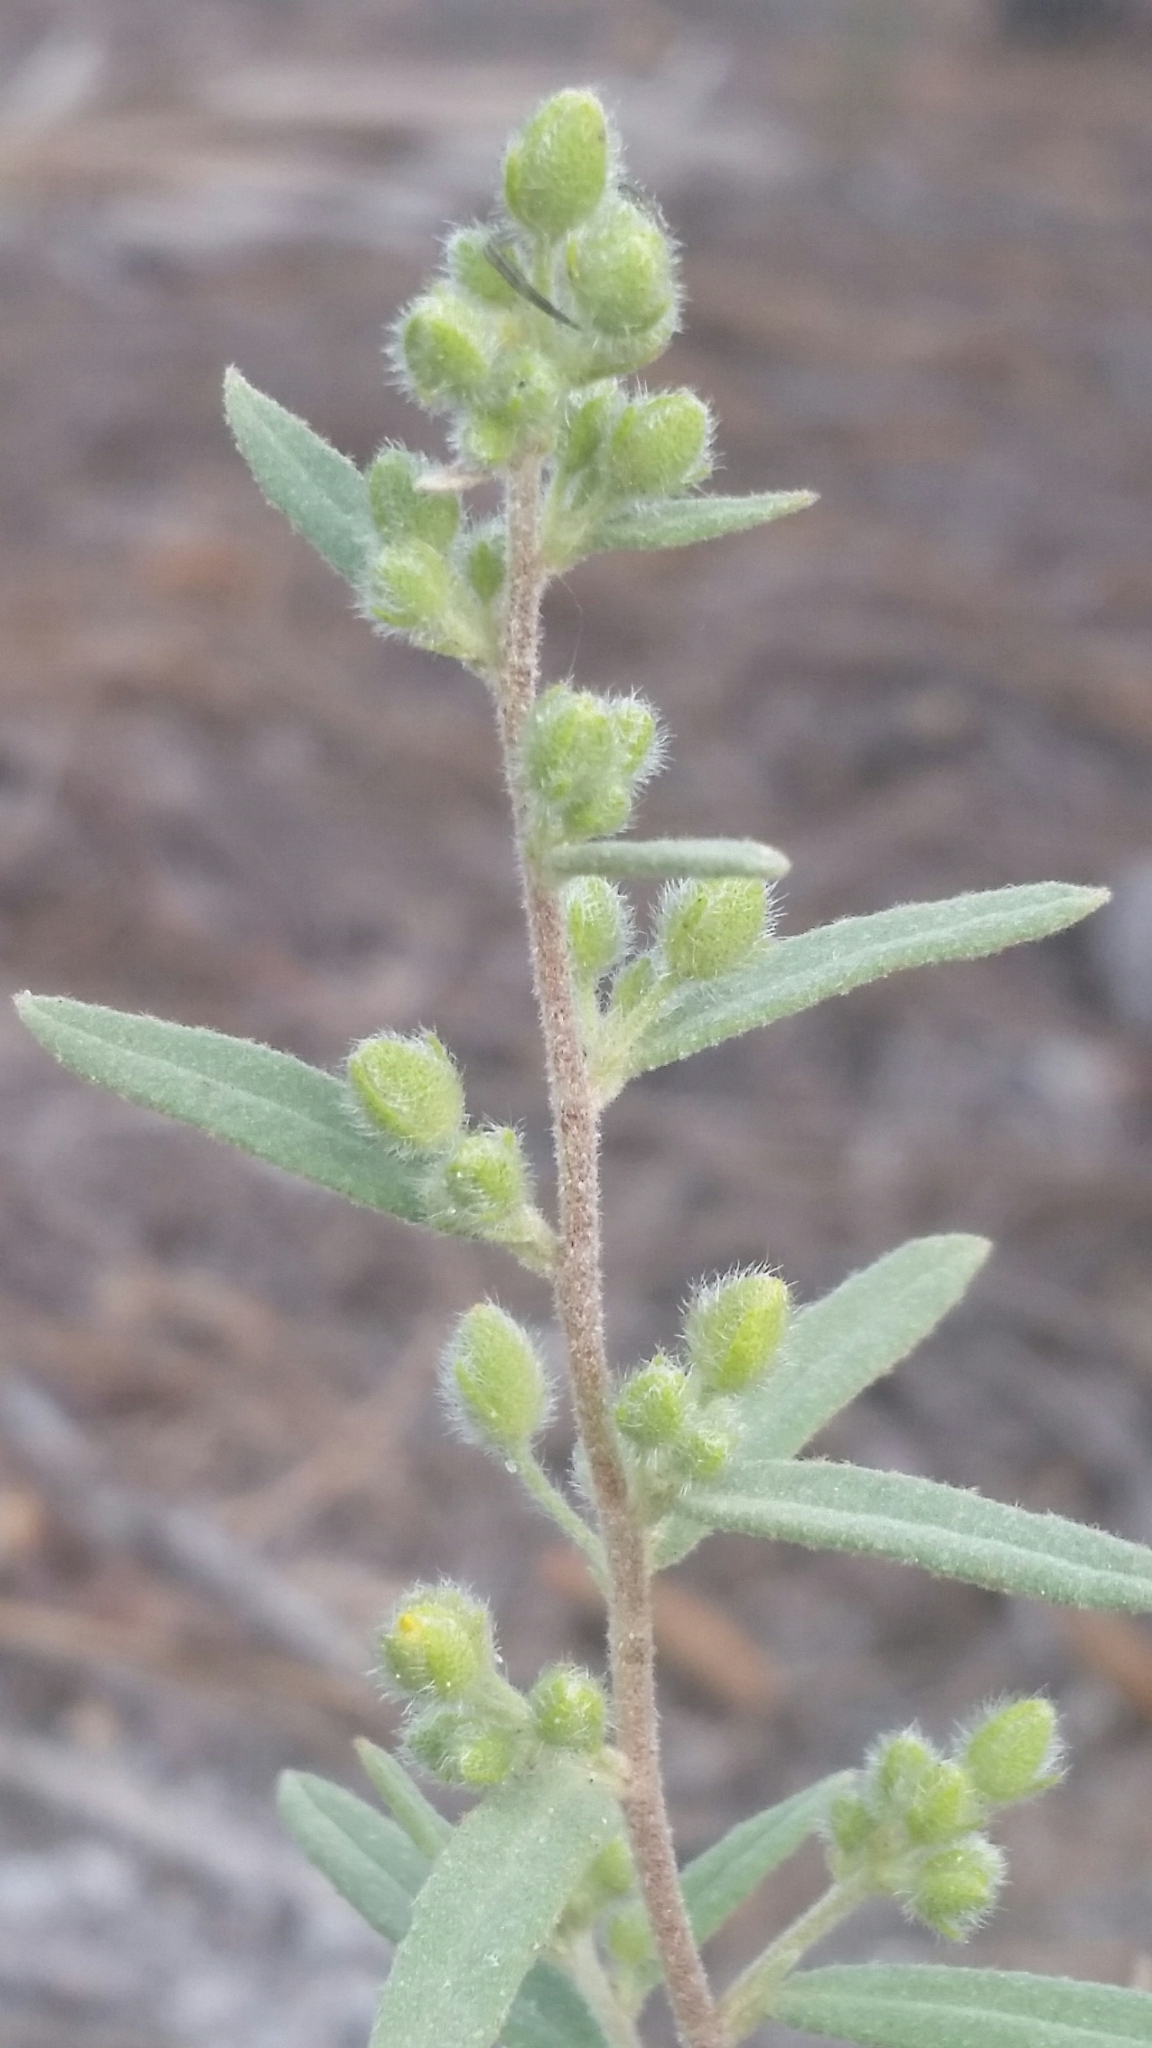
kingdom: Plantae
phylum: Tracheophyta
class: Magnoliopsida
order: Malvales
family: Cistaceae
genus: Crocanthemum
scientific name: Crocanthemum nashii
